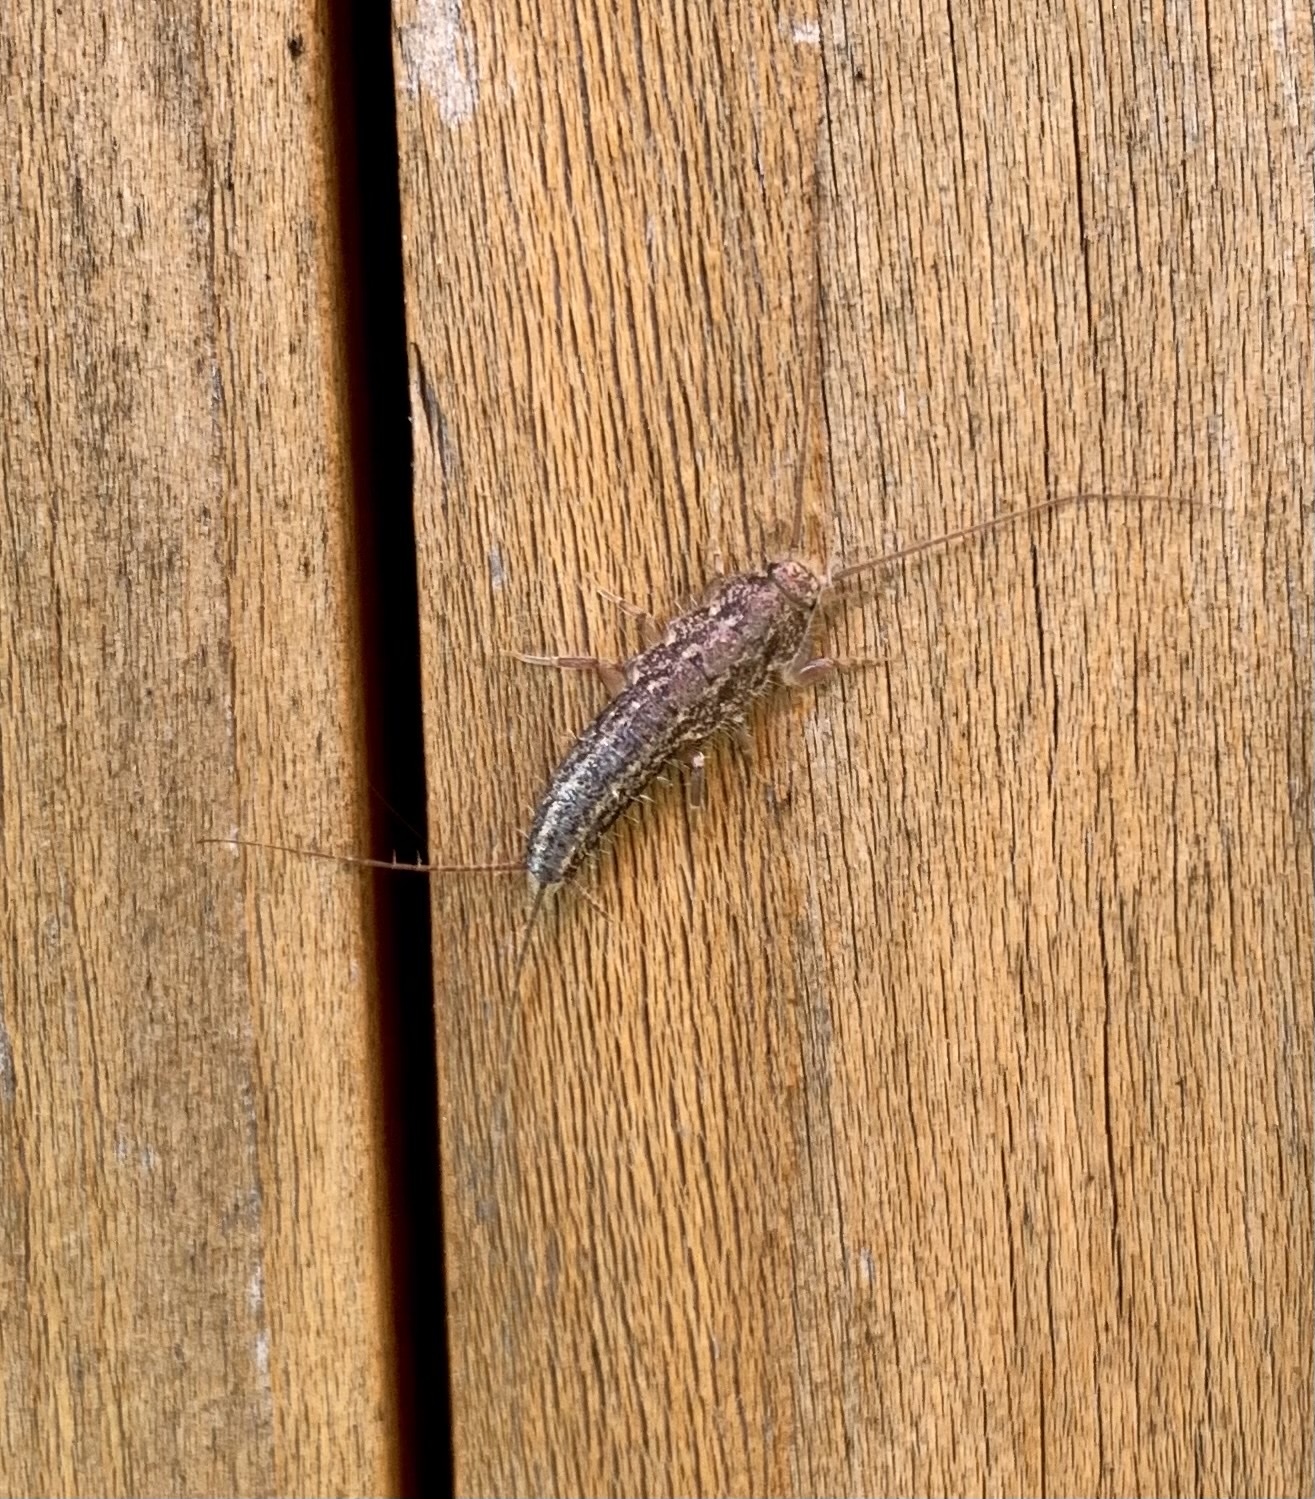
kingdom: Animalia
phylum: Arthropoda
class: Insecta
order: Zygentoma
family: Lepismatidae
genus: Ctenolepisma
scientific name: Ctenolepisma lineata
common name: Four-lined silverfish
